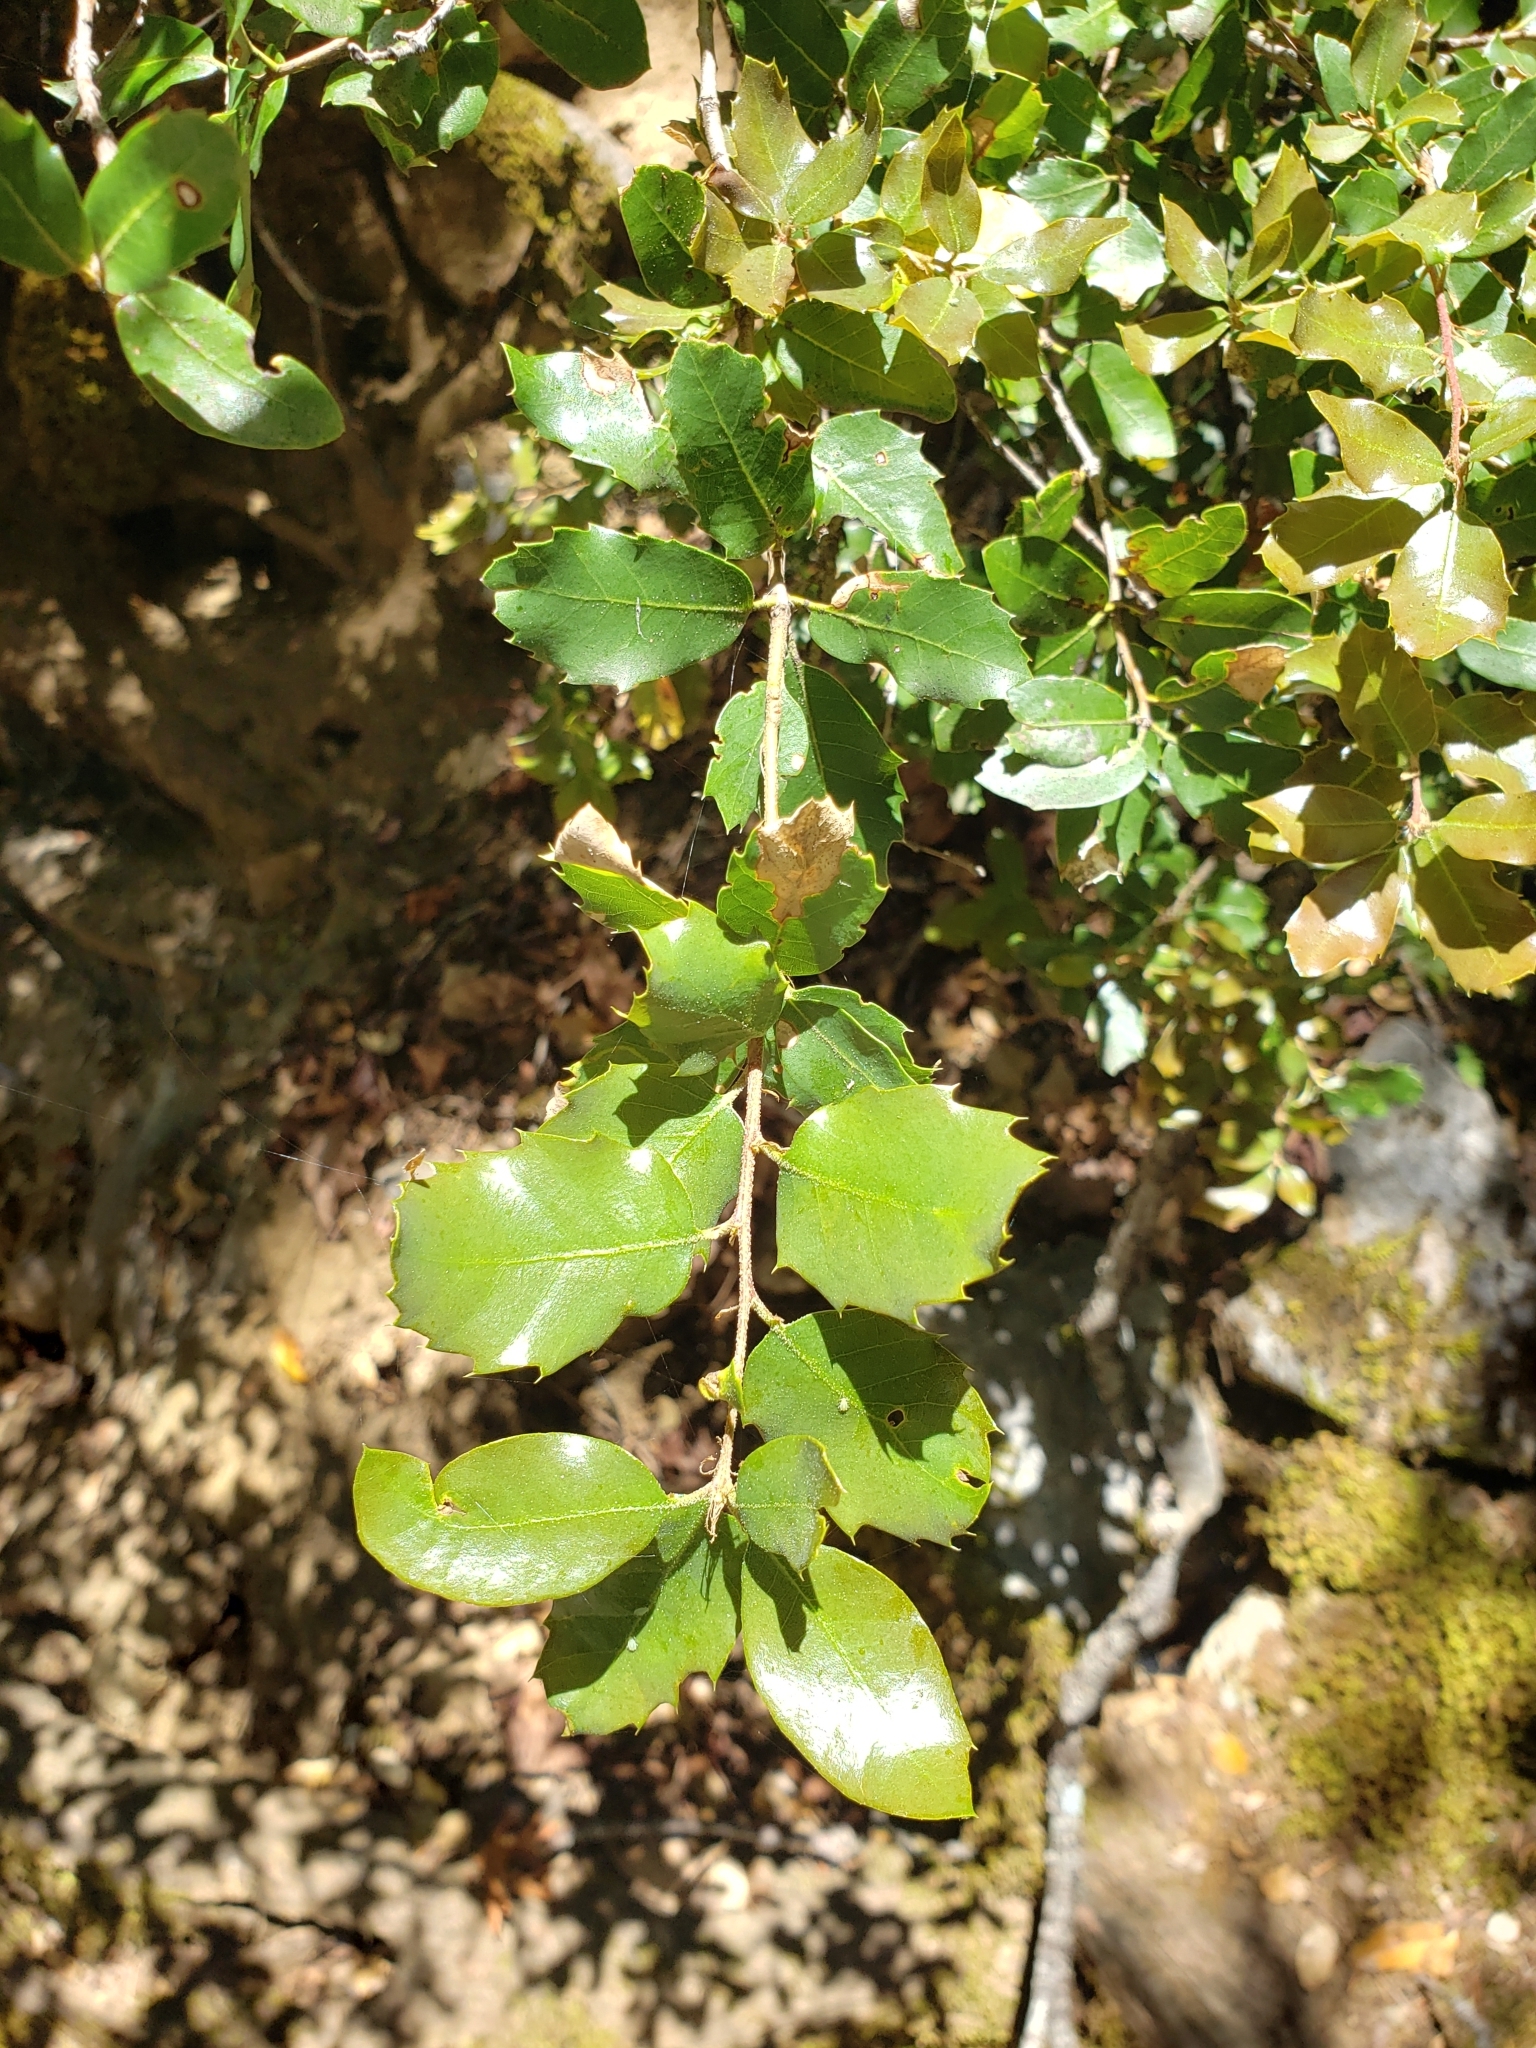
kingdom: Plantae
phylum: Tracheophyta
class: Magnoliopsida
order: Fagales
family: Fagaceae
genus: Quercus
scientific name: Quercus chrysolepis
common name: Canyon live oak
